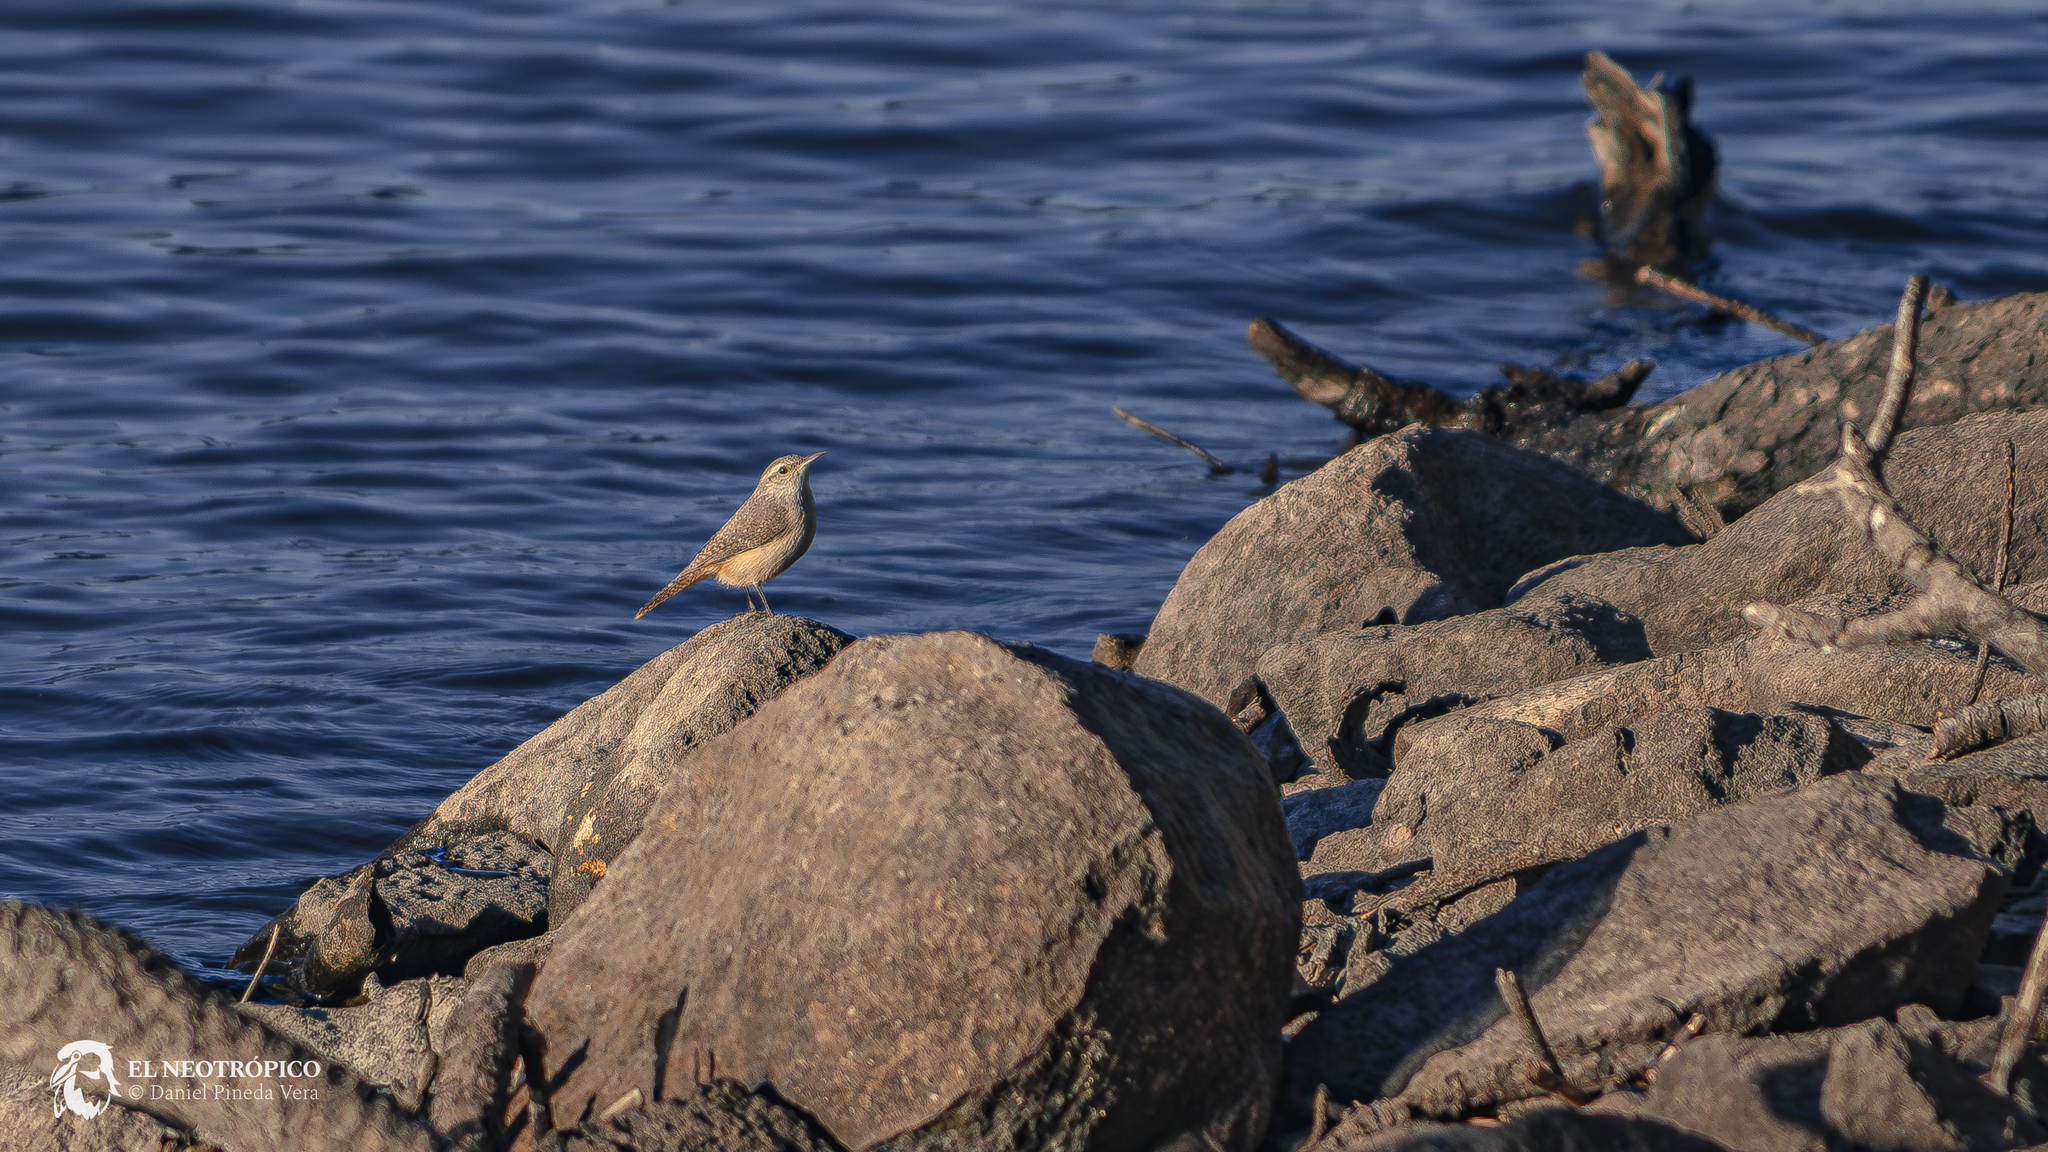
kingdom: Animalia
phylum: Chordata
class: Aves
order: Passeriformes
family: Troglodytidae
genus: Salpinctes
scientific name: Salpinctes obsoletus
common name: Rock wren
